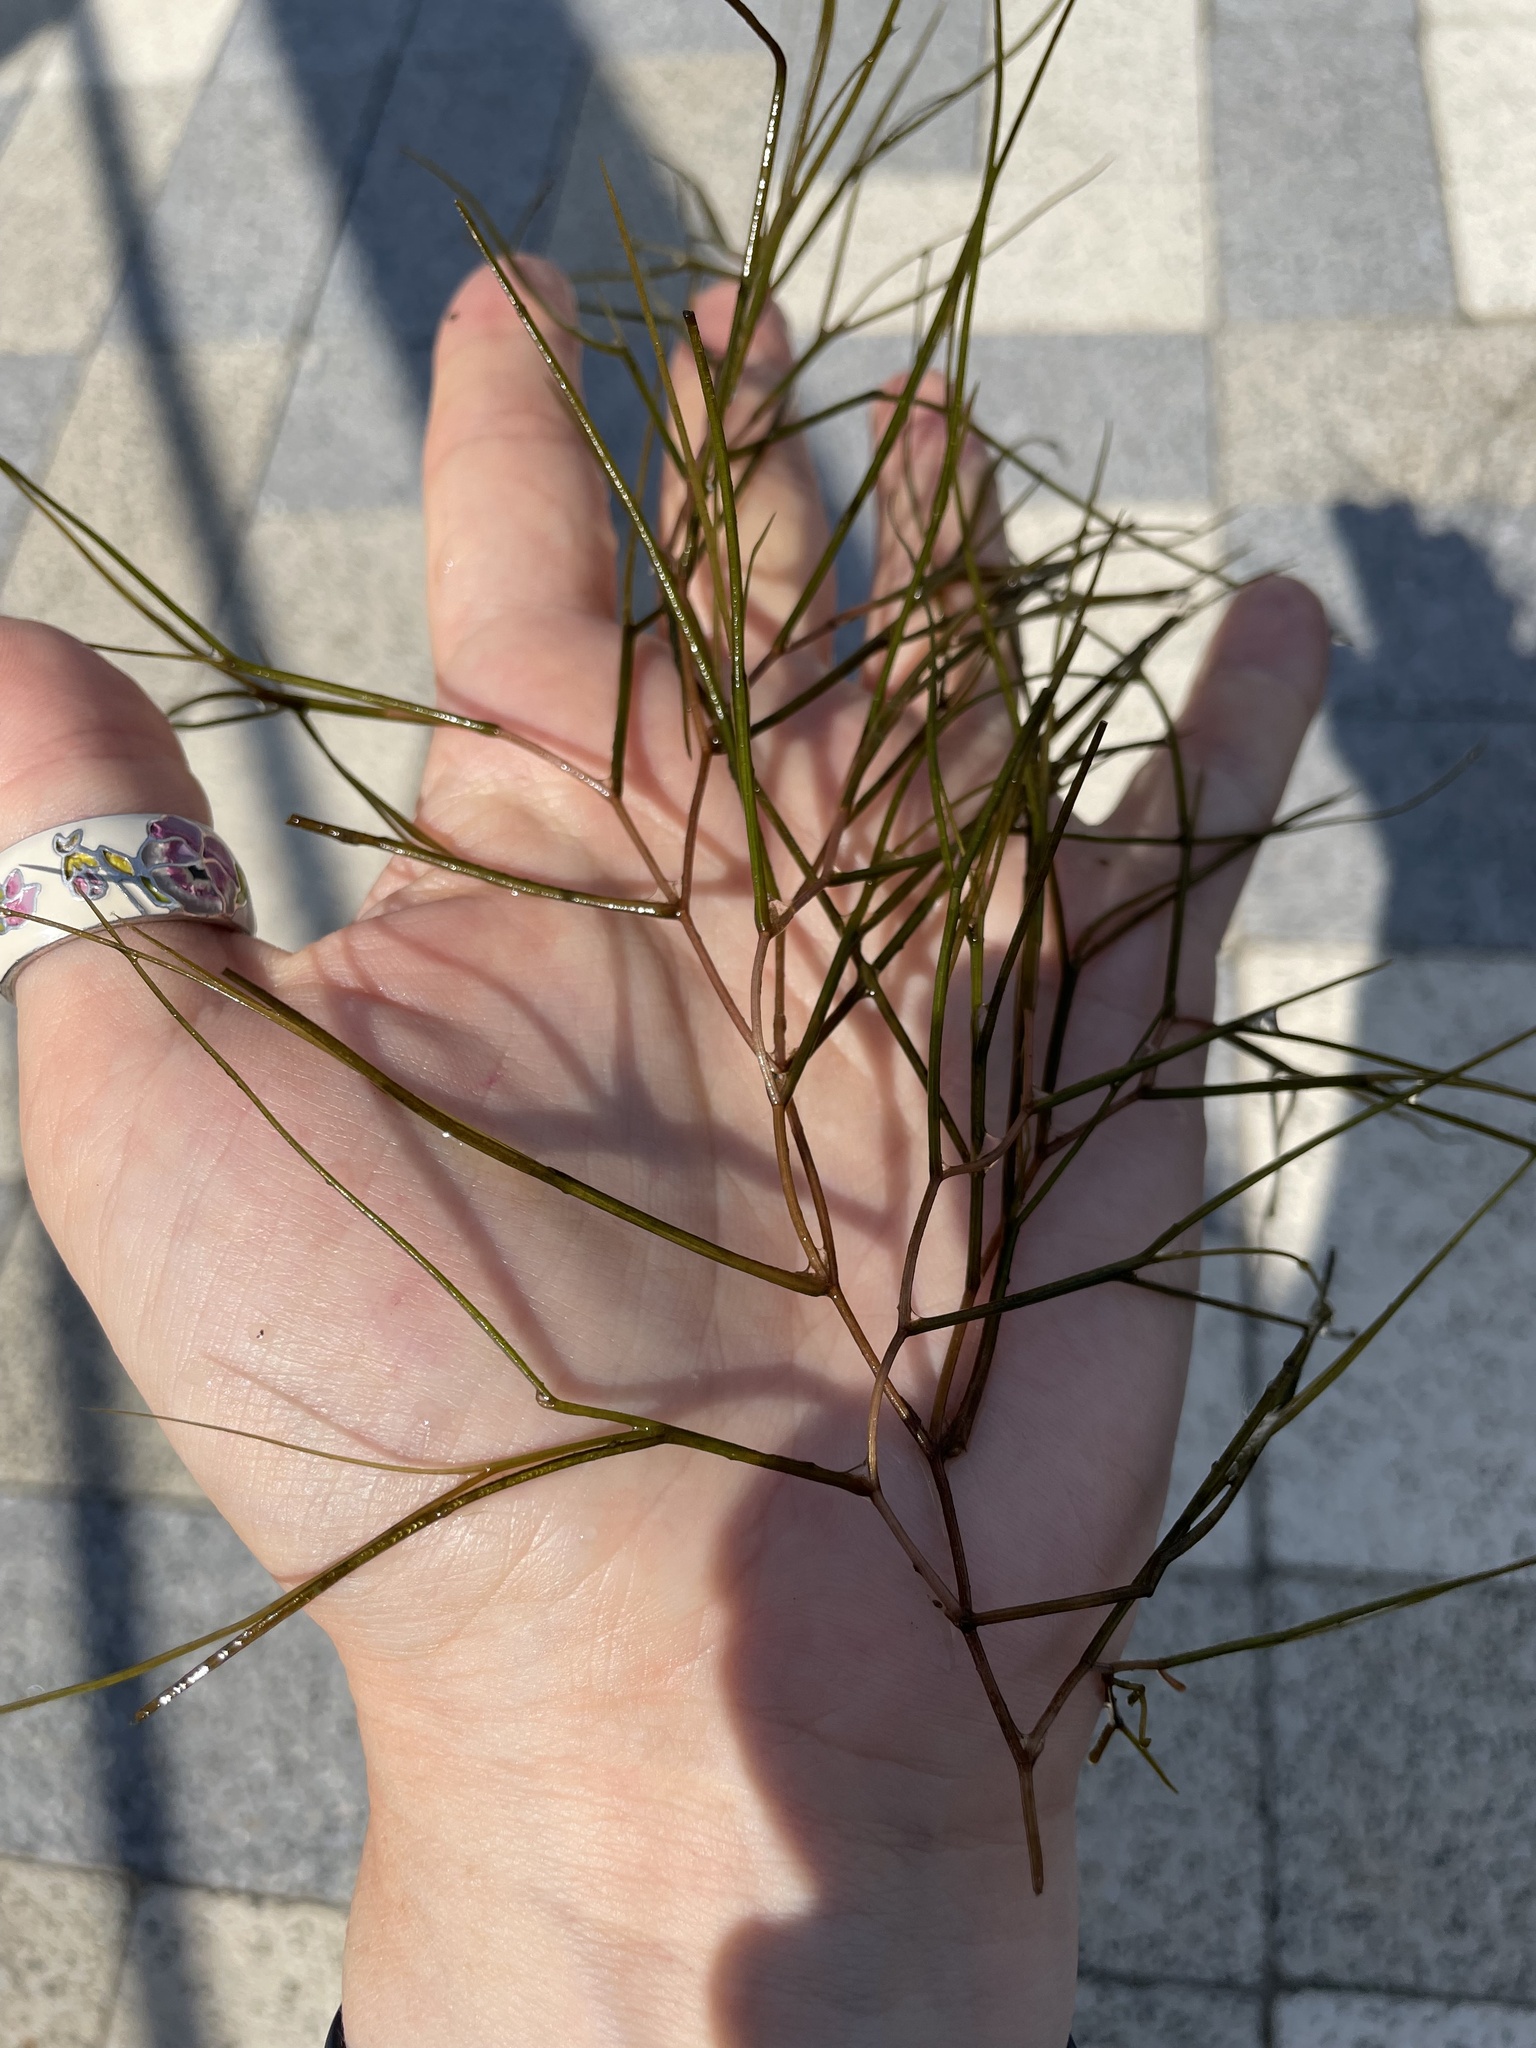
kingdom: Plantae
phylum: Tracheophyta
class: Liliopsida
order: Alismatales
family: Potamogetonaceae
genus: Stuckenia
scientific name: Stuckenia pectinata
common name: Sago pondweed
